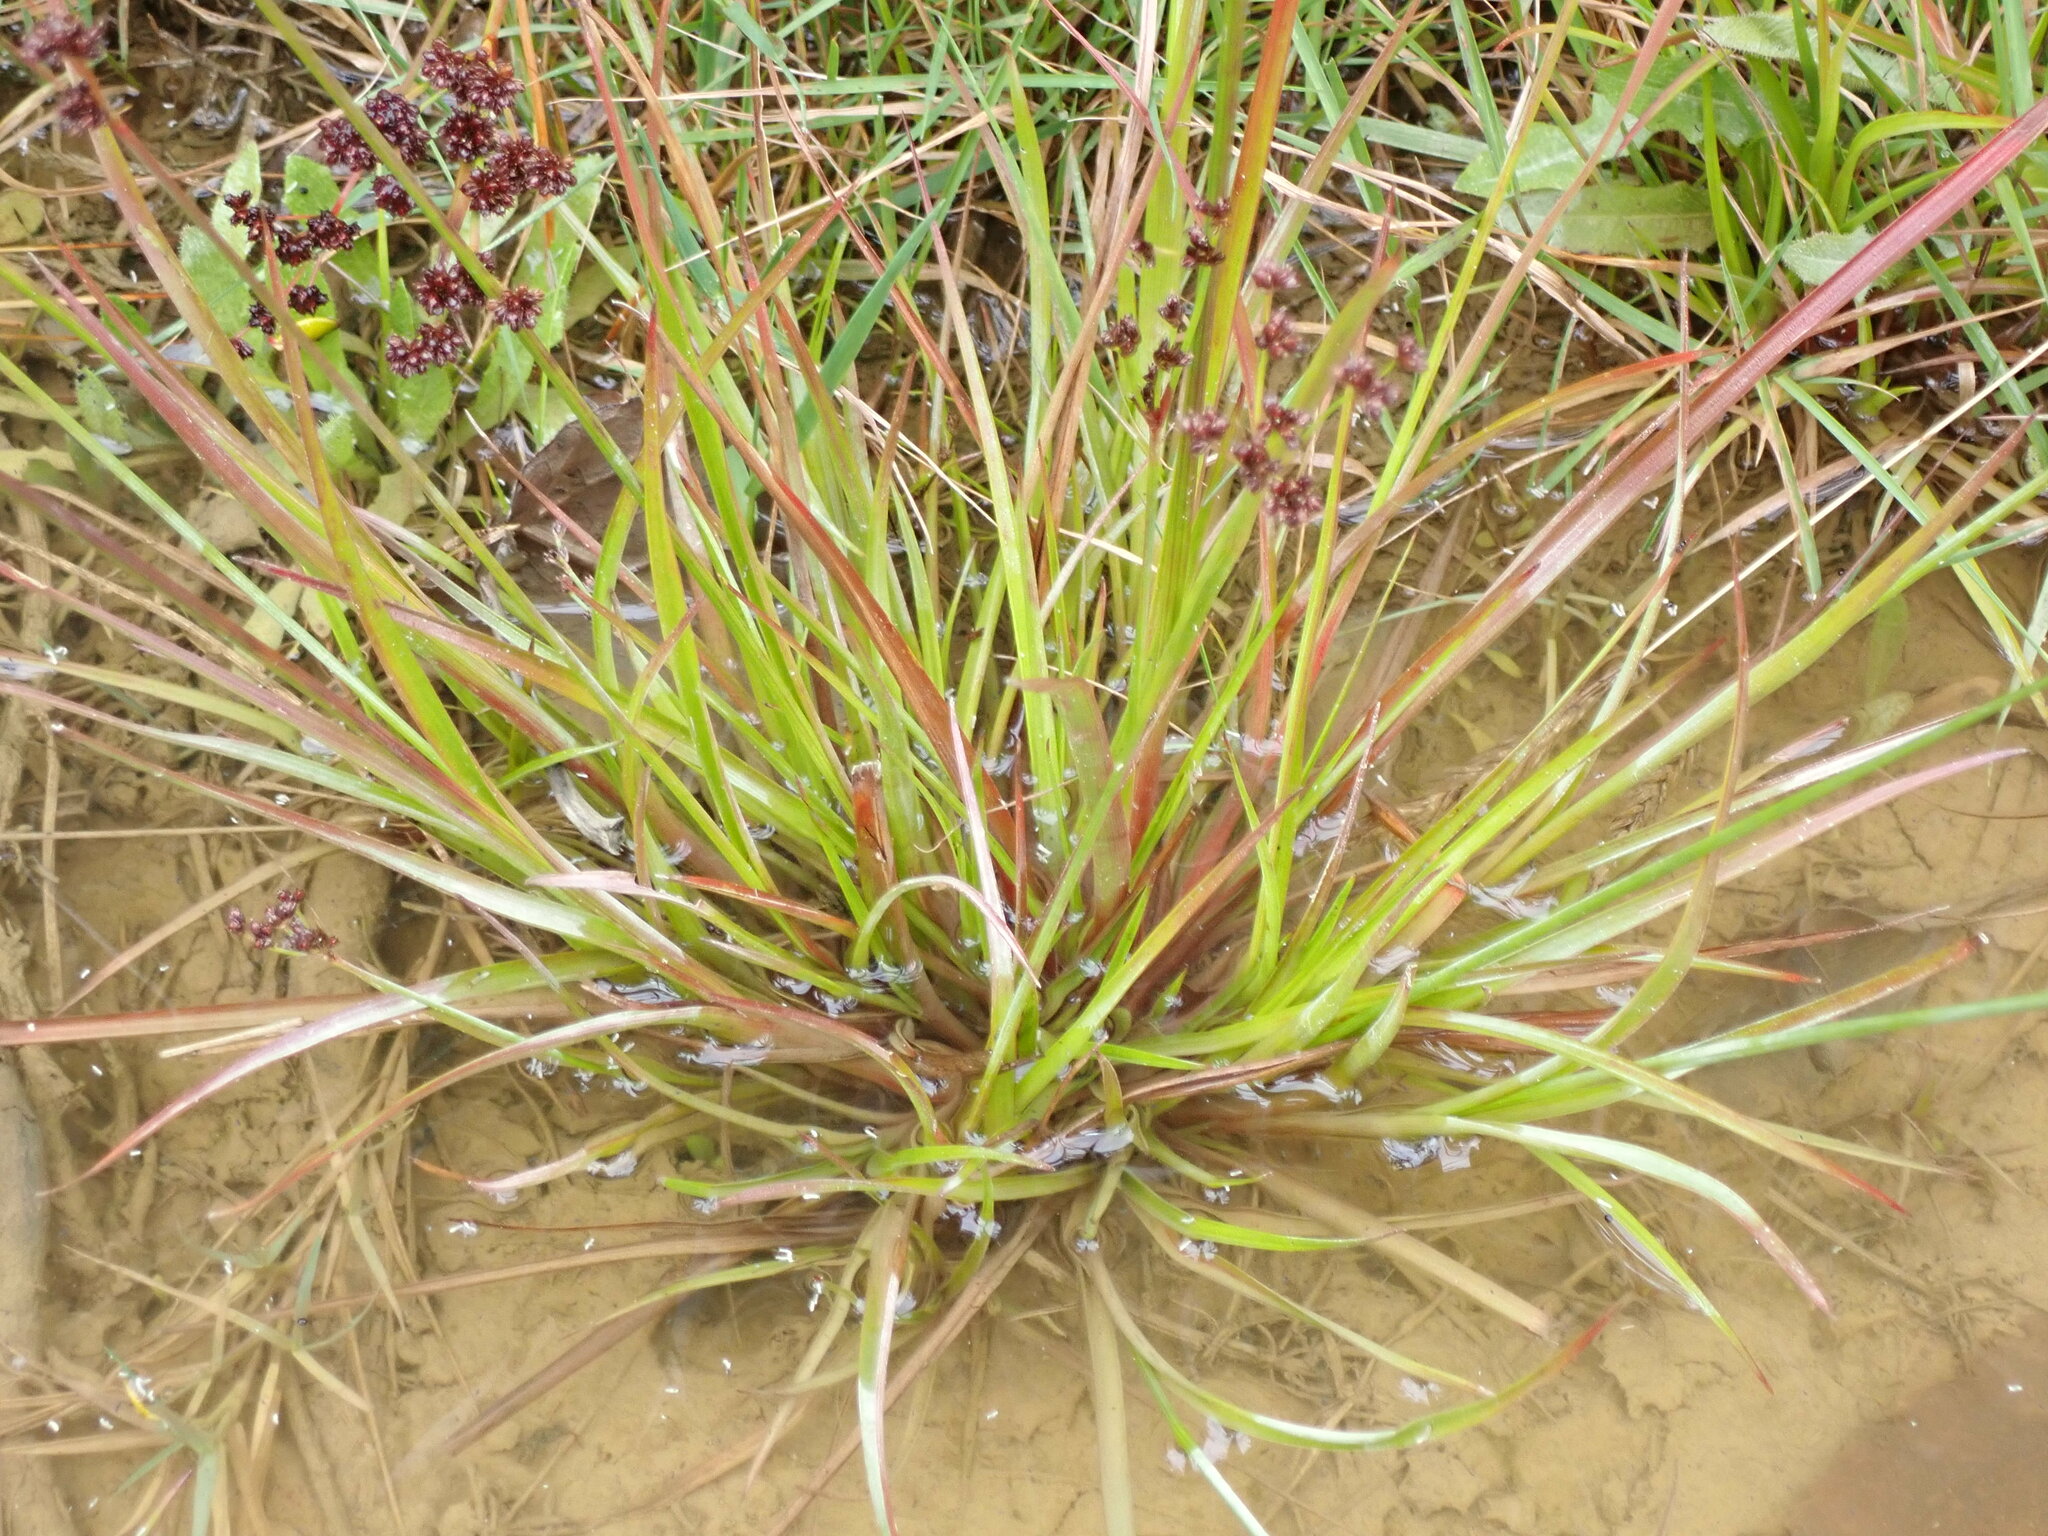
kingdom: Plantae
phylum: Tracheophyta
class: Liliopsida
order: Poales
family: Juncaceae
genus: Juncus
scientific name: Juncus planifolius
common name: Broadleaf rush
